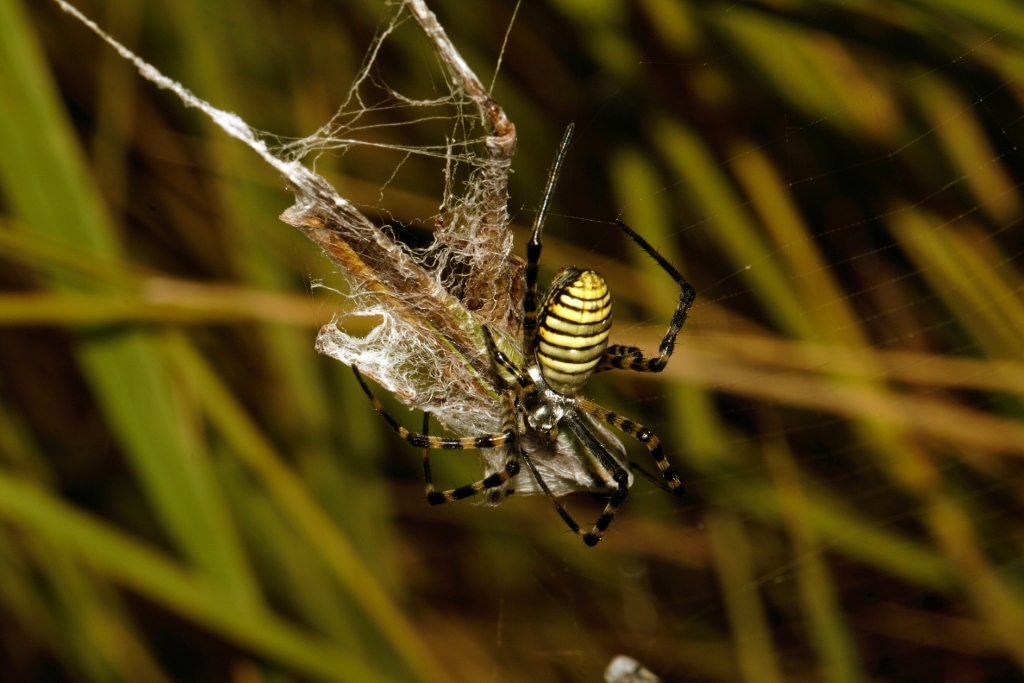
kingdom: Animalia
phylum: Arthropoda
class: Arachnida
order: Araneae
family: Araneidae
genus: Argiope
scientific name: Argiope trifasciata
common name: Banded garden spider
